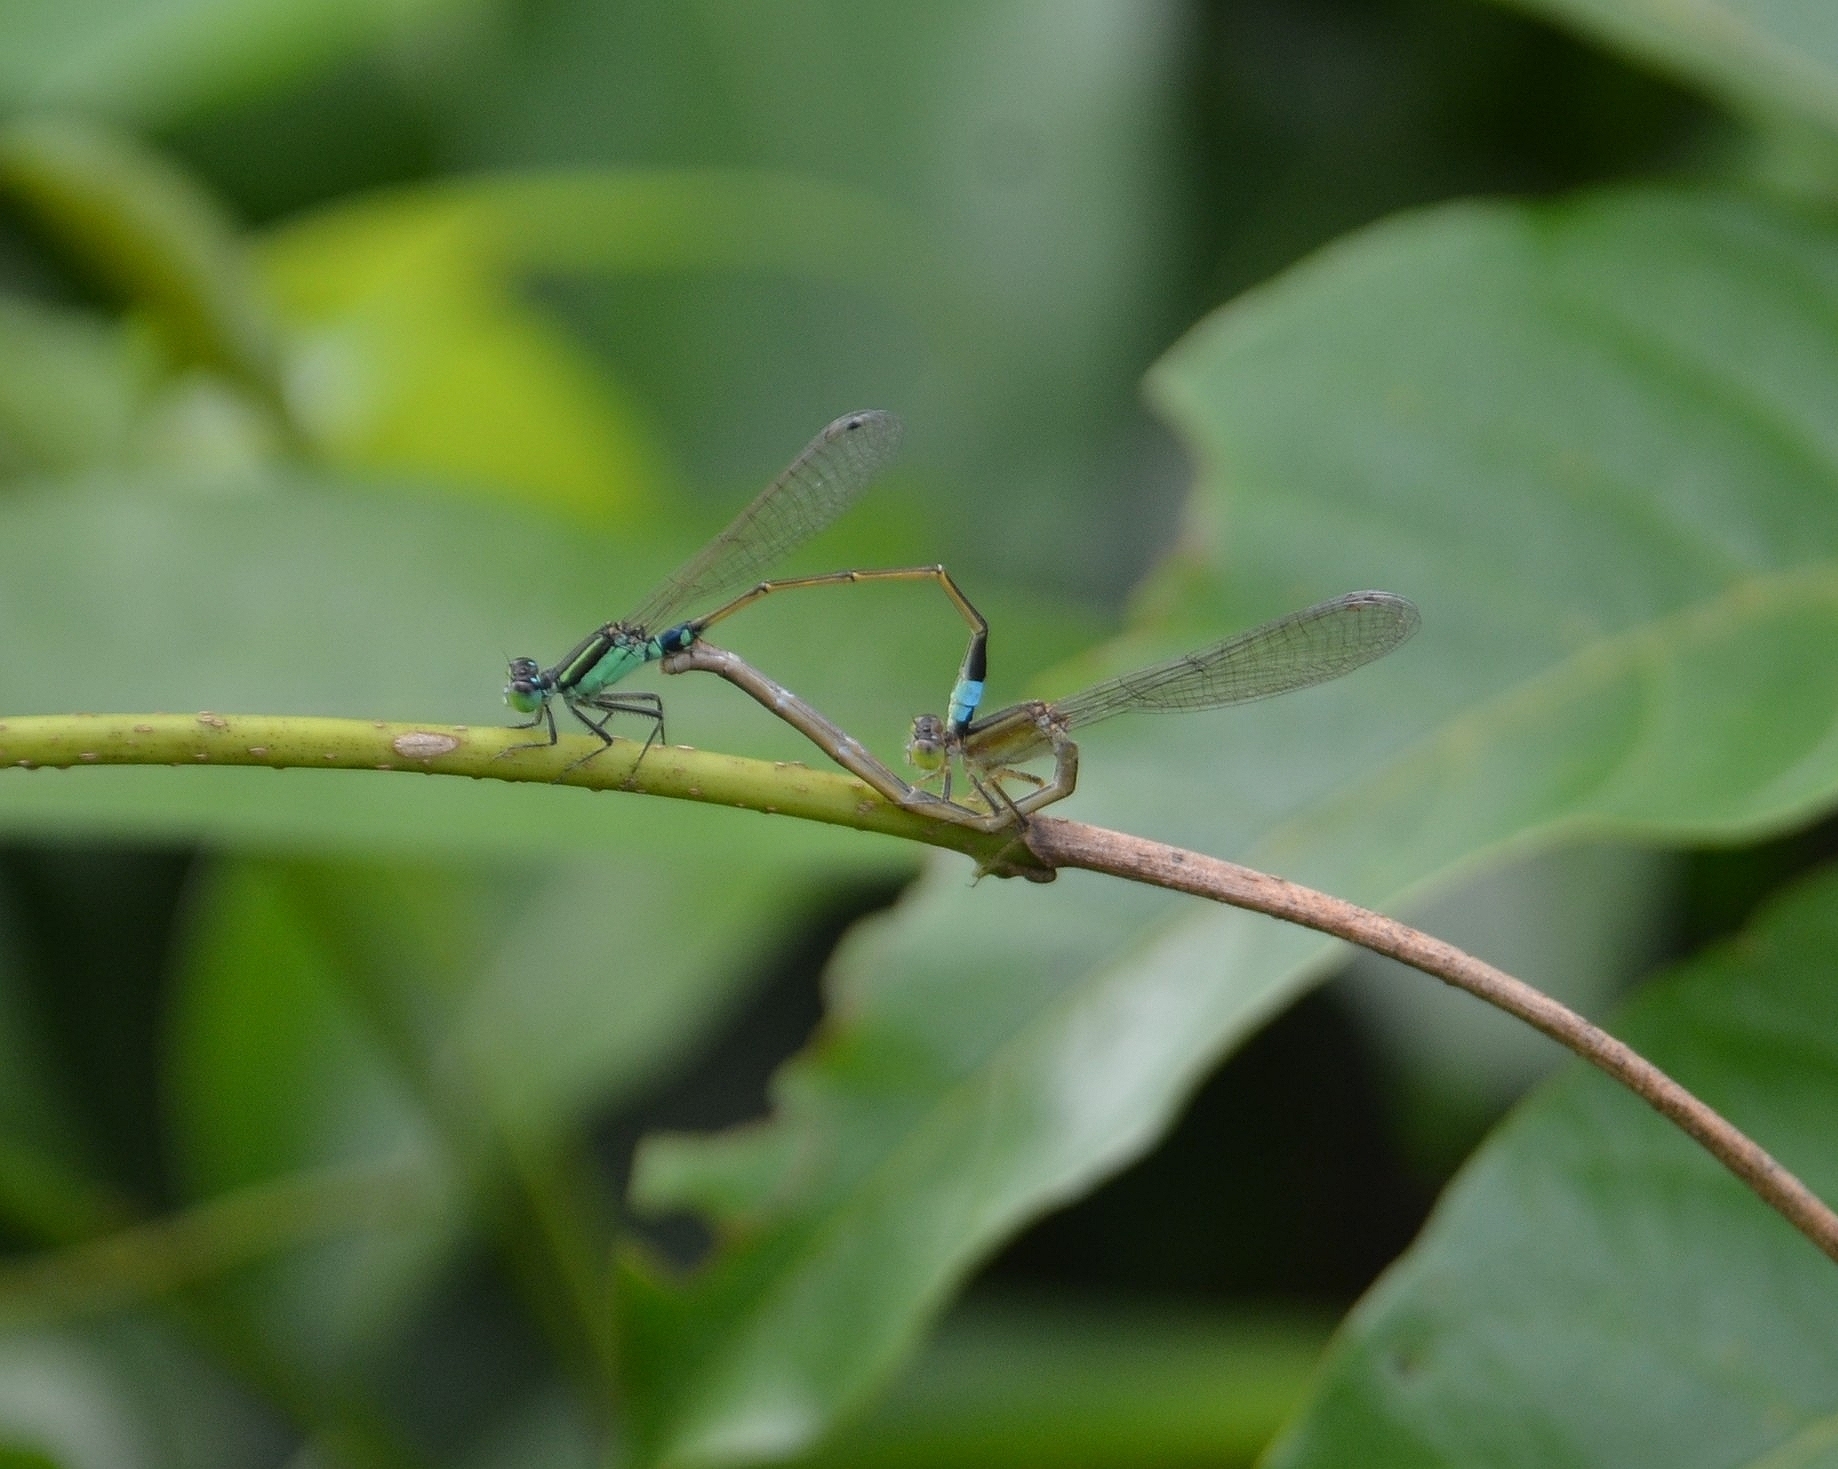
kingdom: Animalia
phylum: Arthropoda
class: Insecta
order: Odonata
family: Coenagrionidae
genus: Ischnura
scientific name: Ischnura senegalensis
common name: Tropical bluetail
